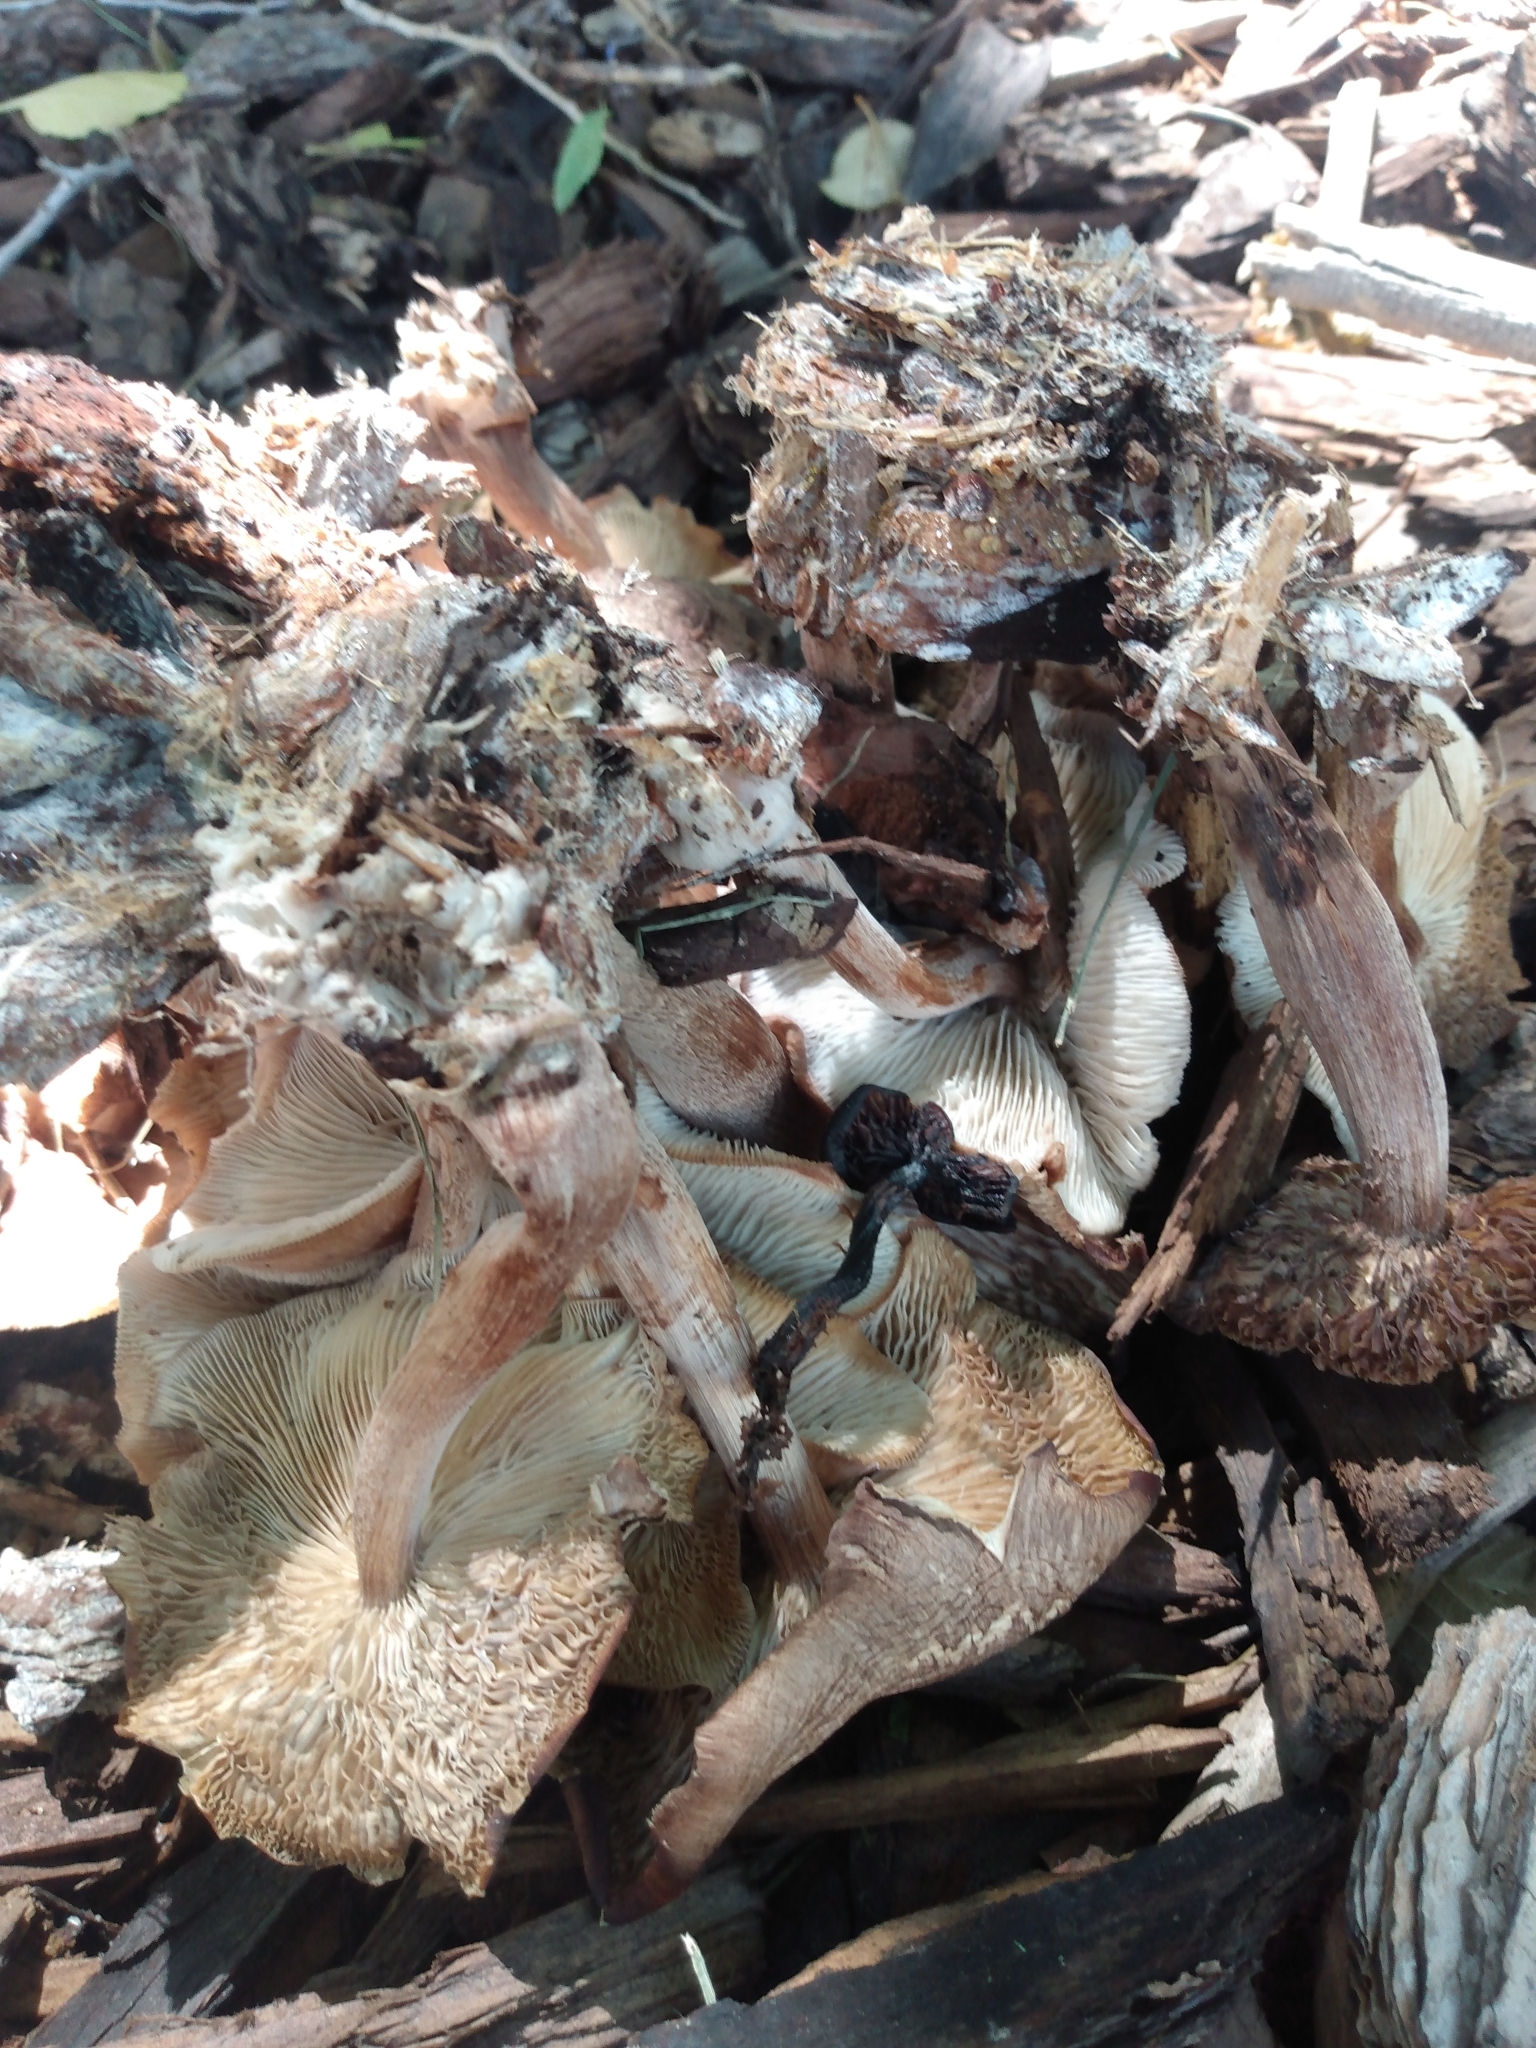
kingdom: Fungi
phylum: Basidiomycota
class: Agaricomycetes
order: Agaricales
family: Omphalotaceae
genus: Collybiopsis
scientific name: Collybiopsis luxurians
